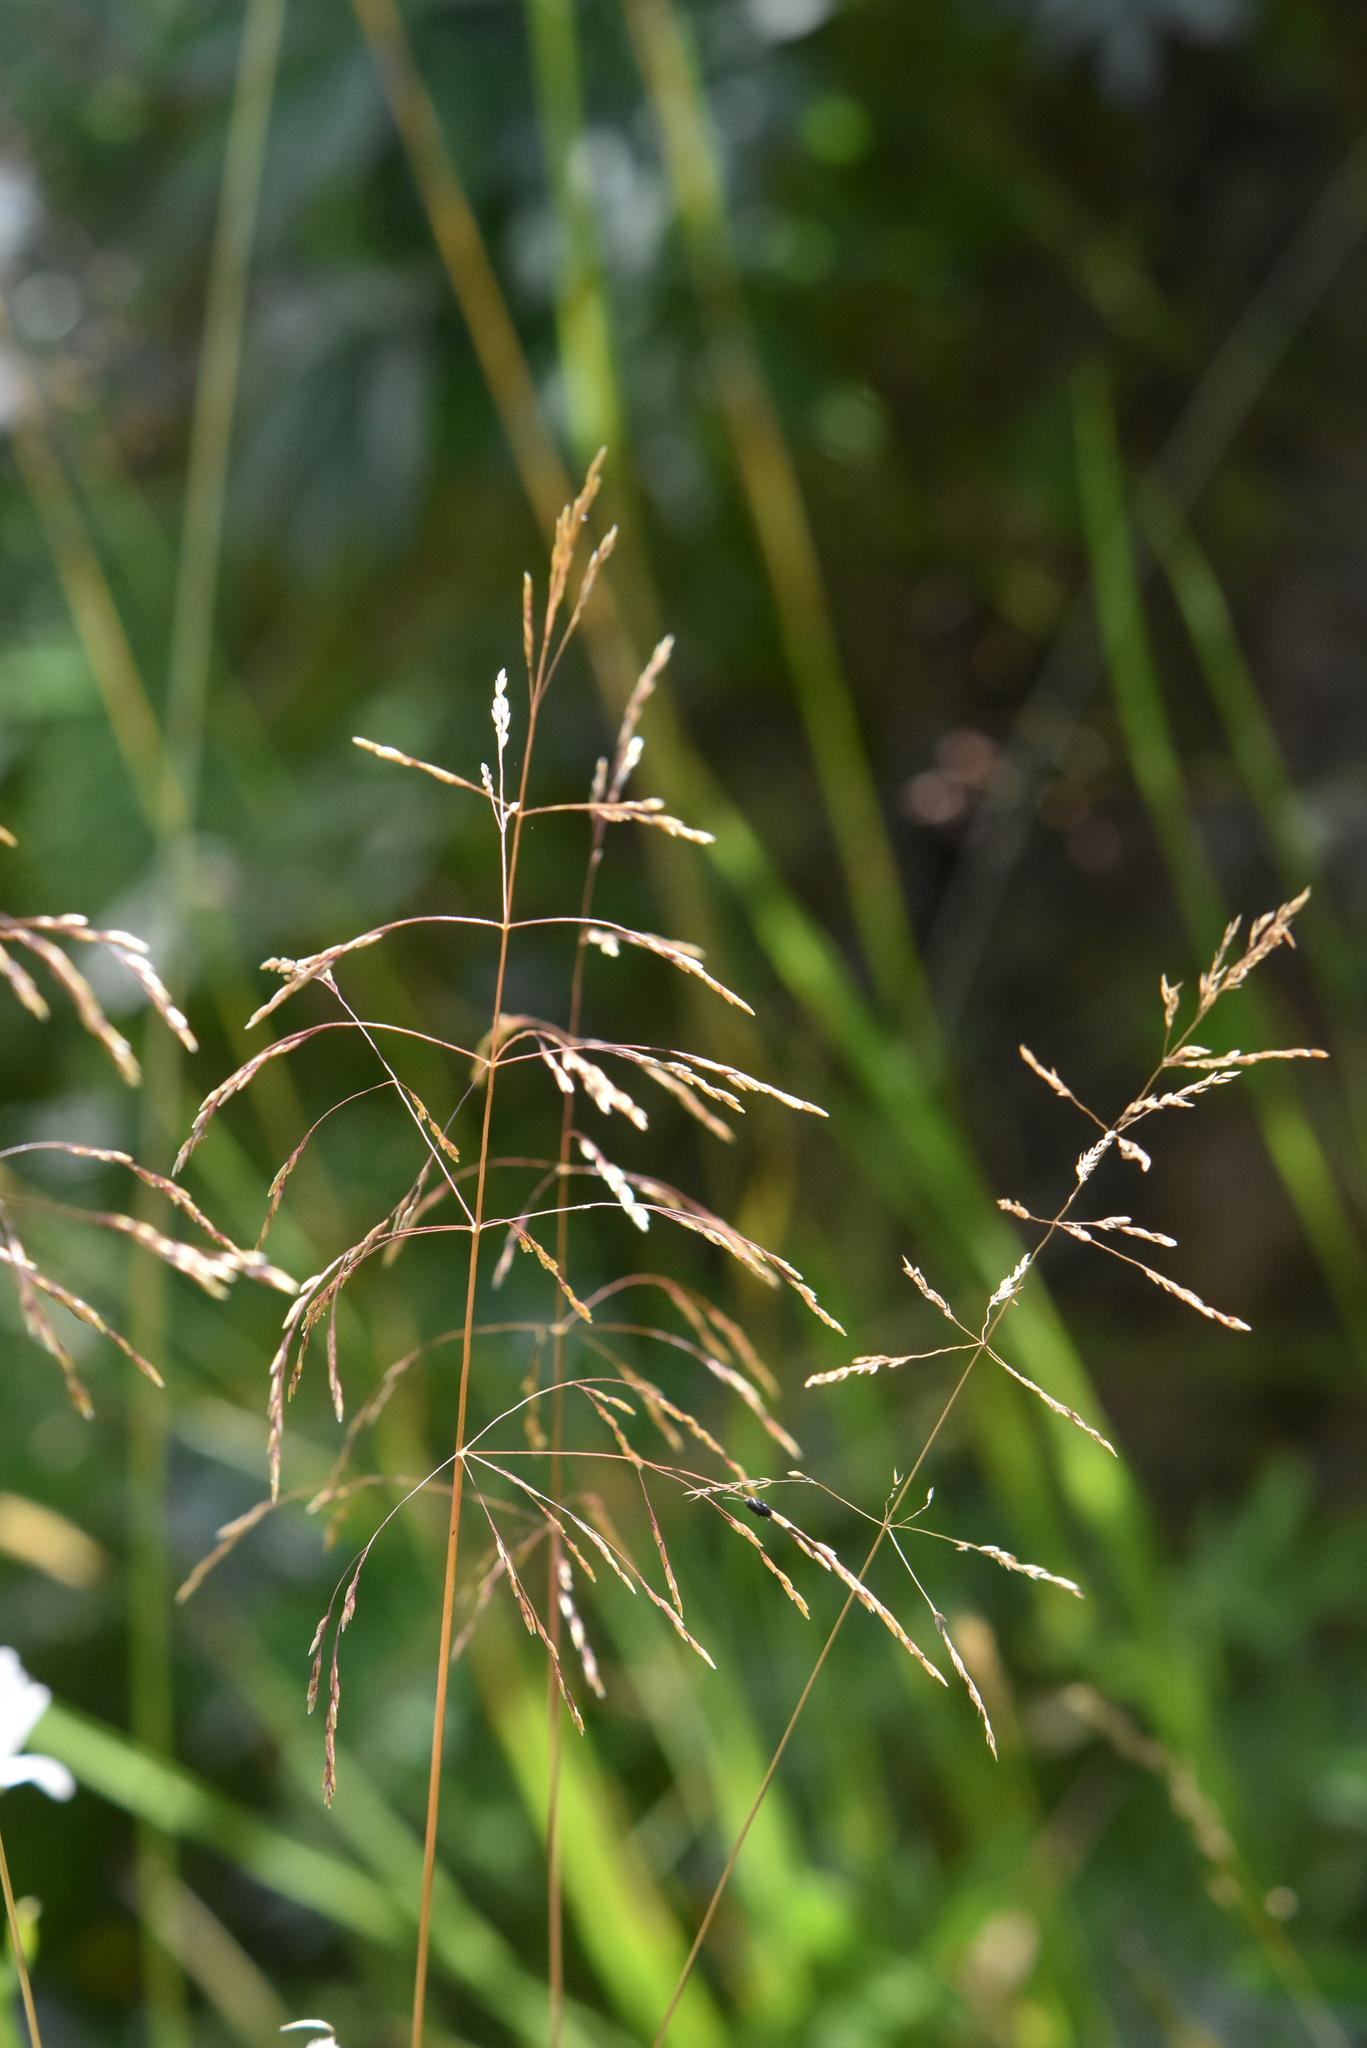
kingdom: Plantae
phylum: Tracheophyta
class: Liliopsida
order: Poales
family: Poaceae
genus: Deschampsia
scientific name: Deschampsia cespitosa
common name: Tufted hair-grass
